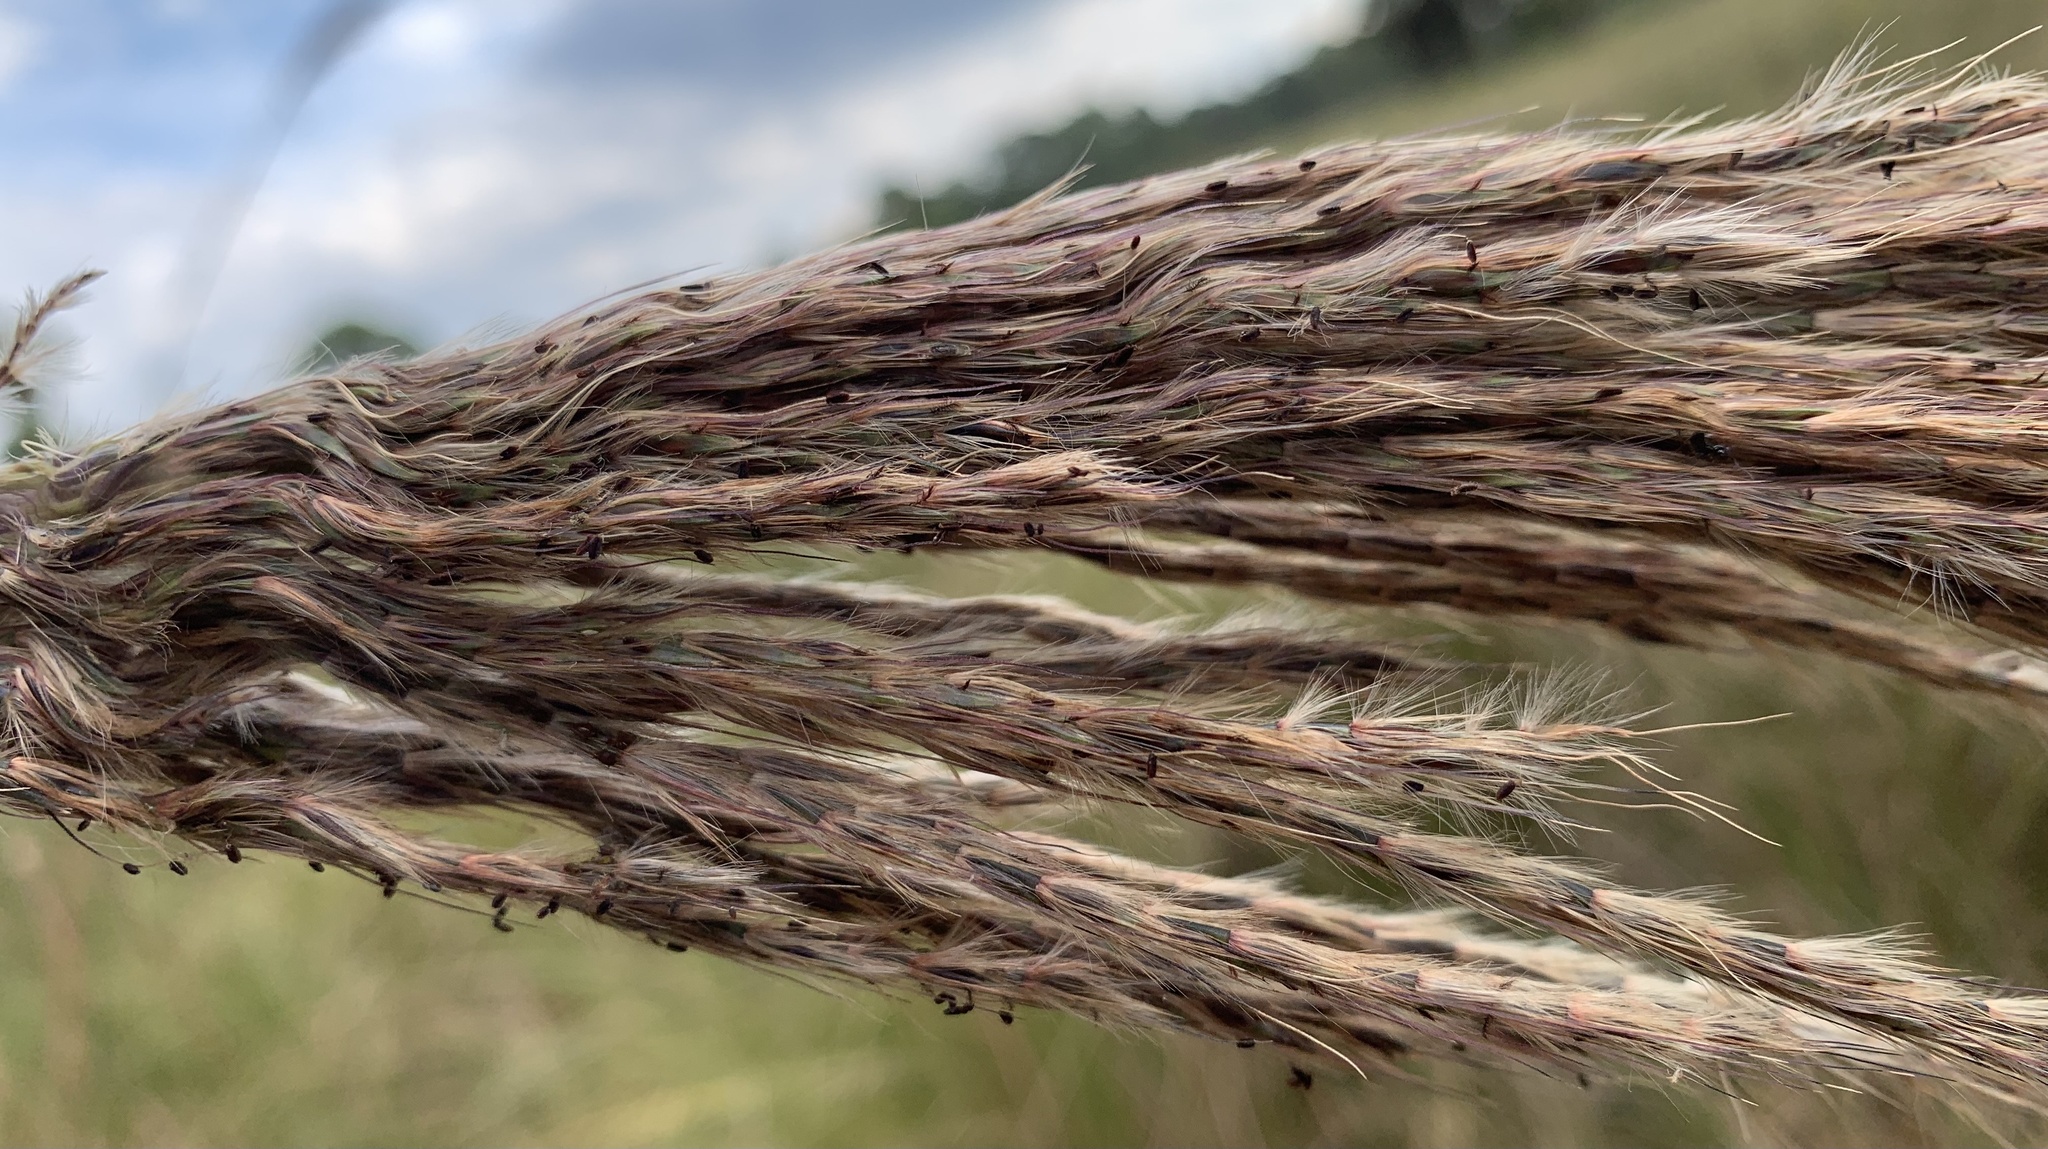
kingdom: Plantae
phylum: Tracheophyta
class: Liliopsida
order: Poales
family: Poaceae
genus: Erianthus
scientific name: Erianthus giganteus
